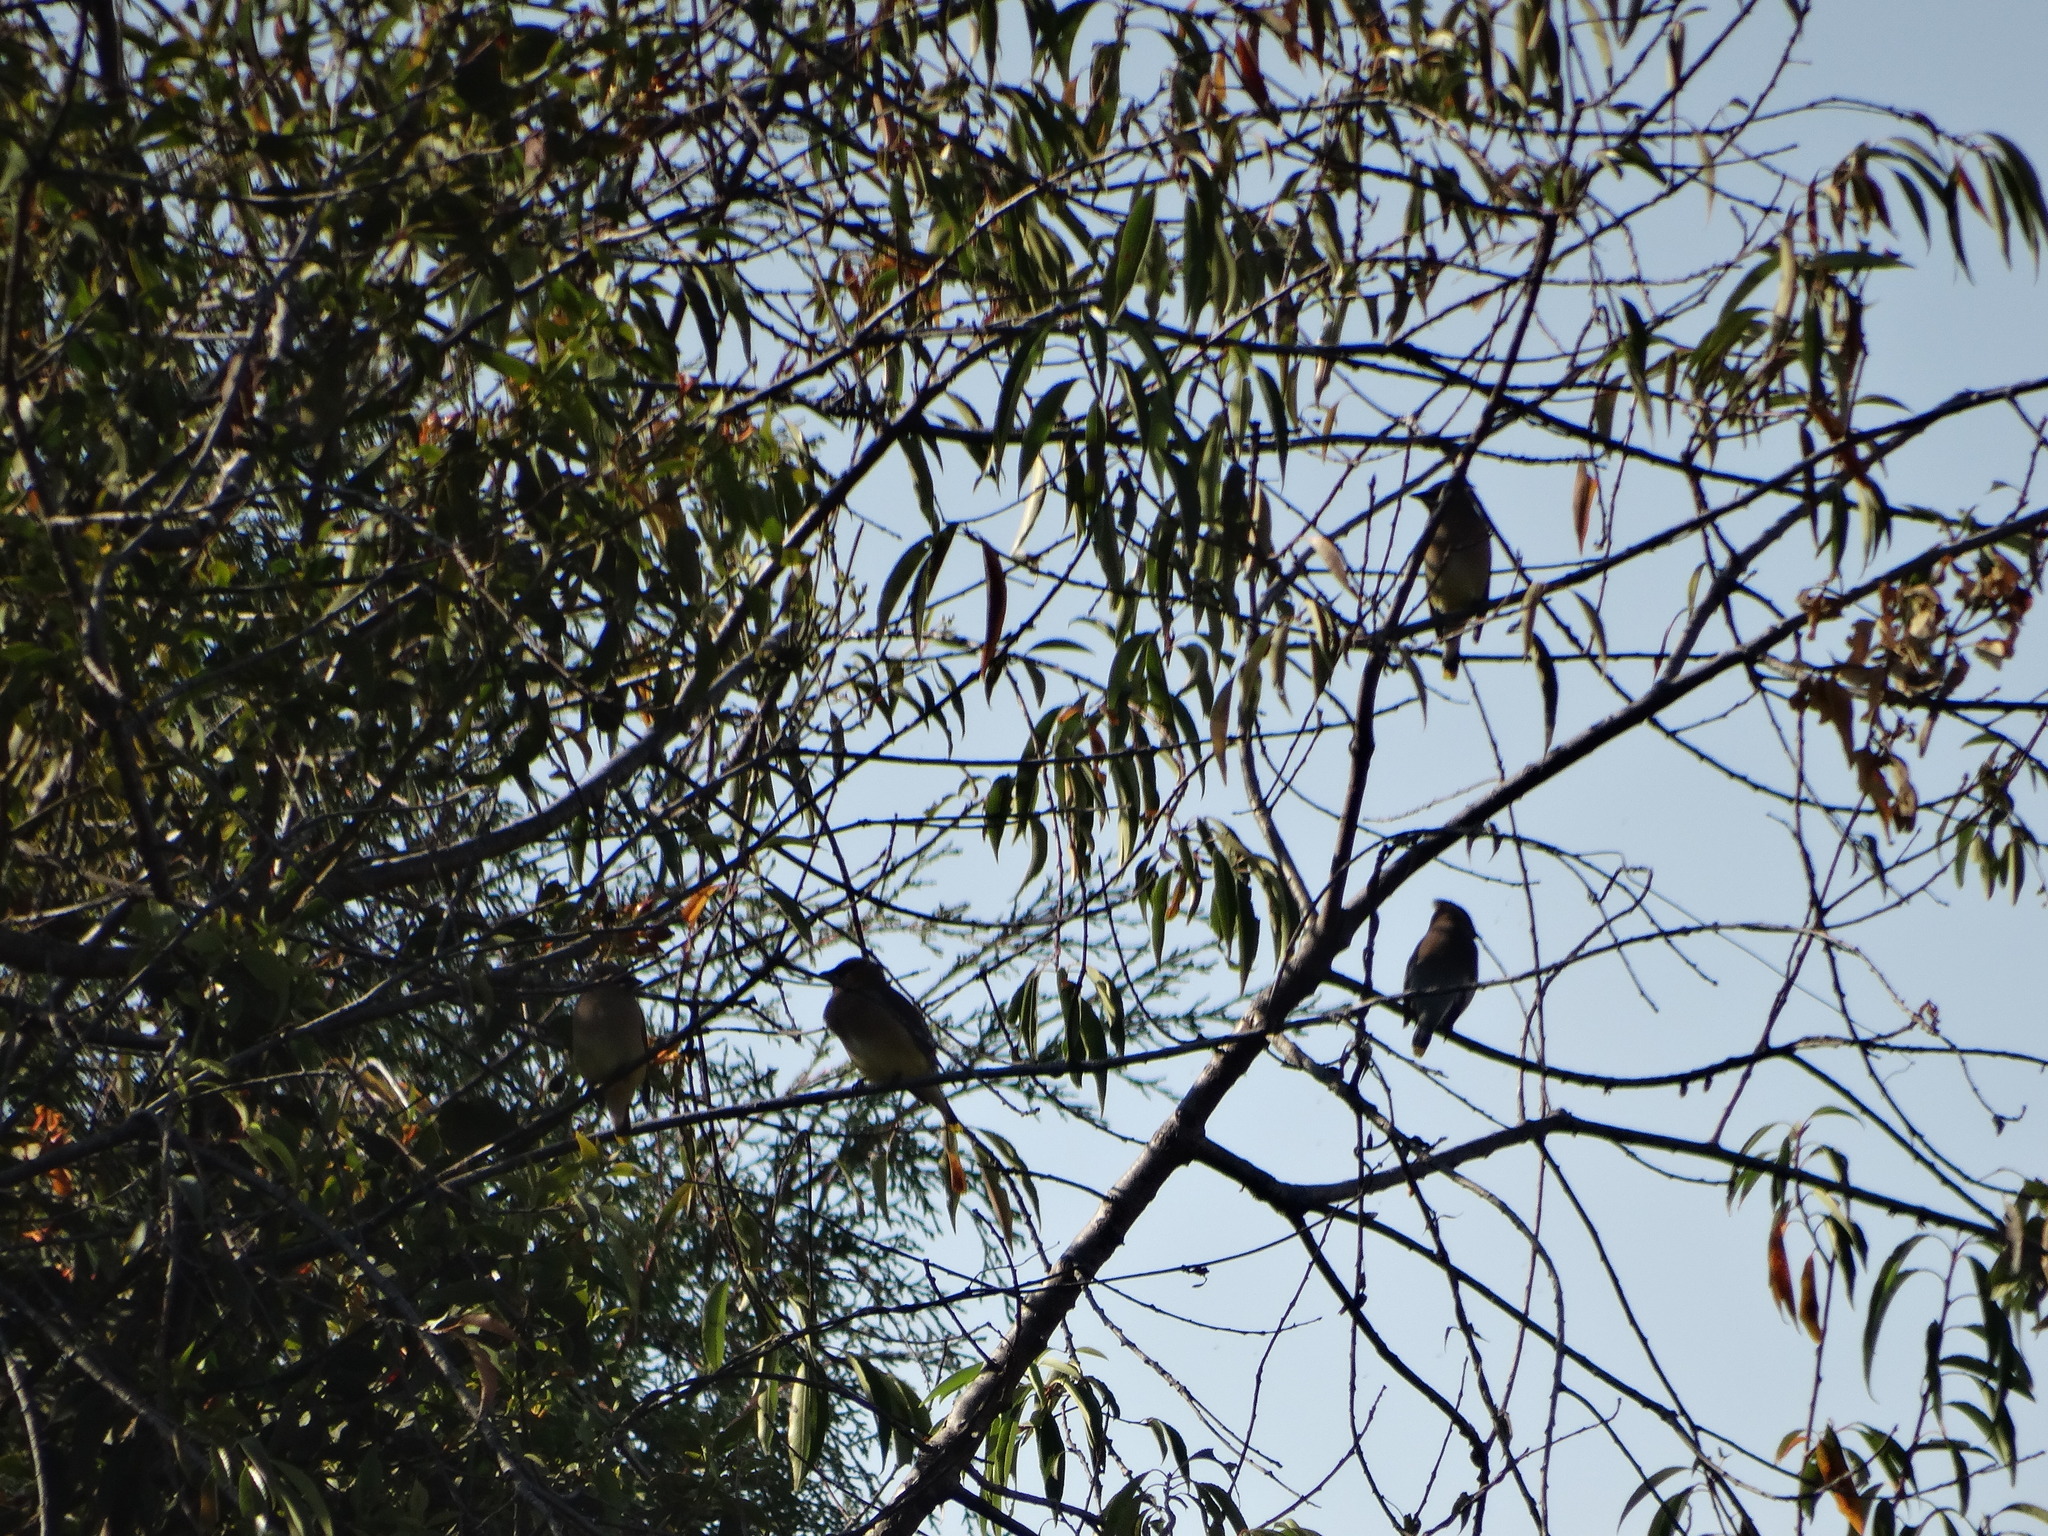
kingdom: Animalia
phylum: Chordata
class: Aves
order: Passeriformes
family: Bombycillidae
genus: Bombycilla
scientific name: Bombycilla cedrorum
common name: Cedar waxwing
